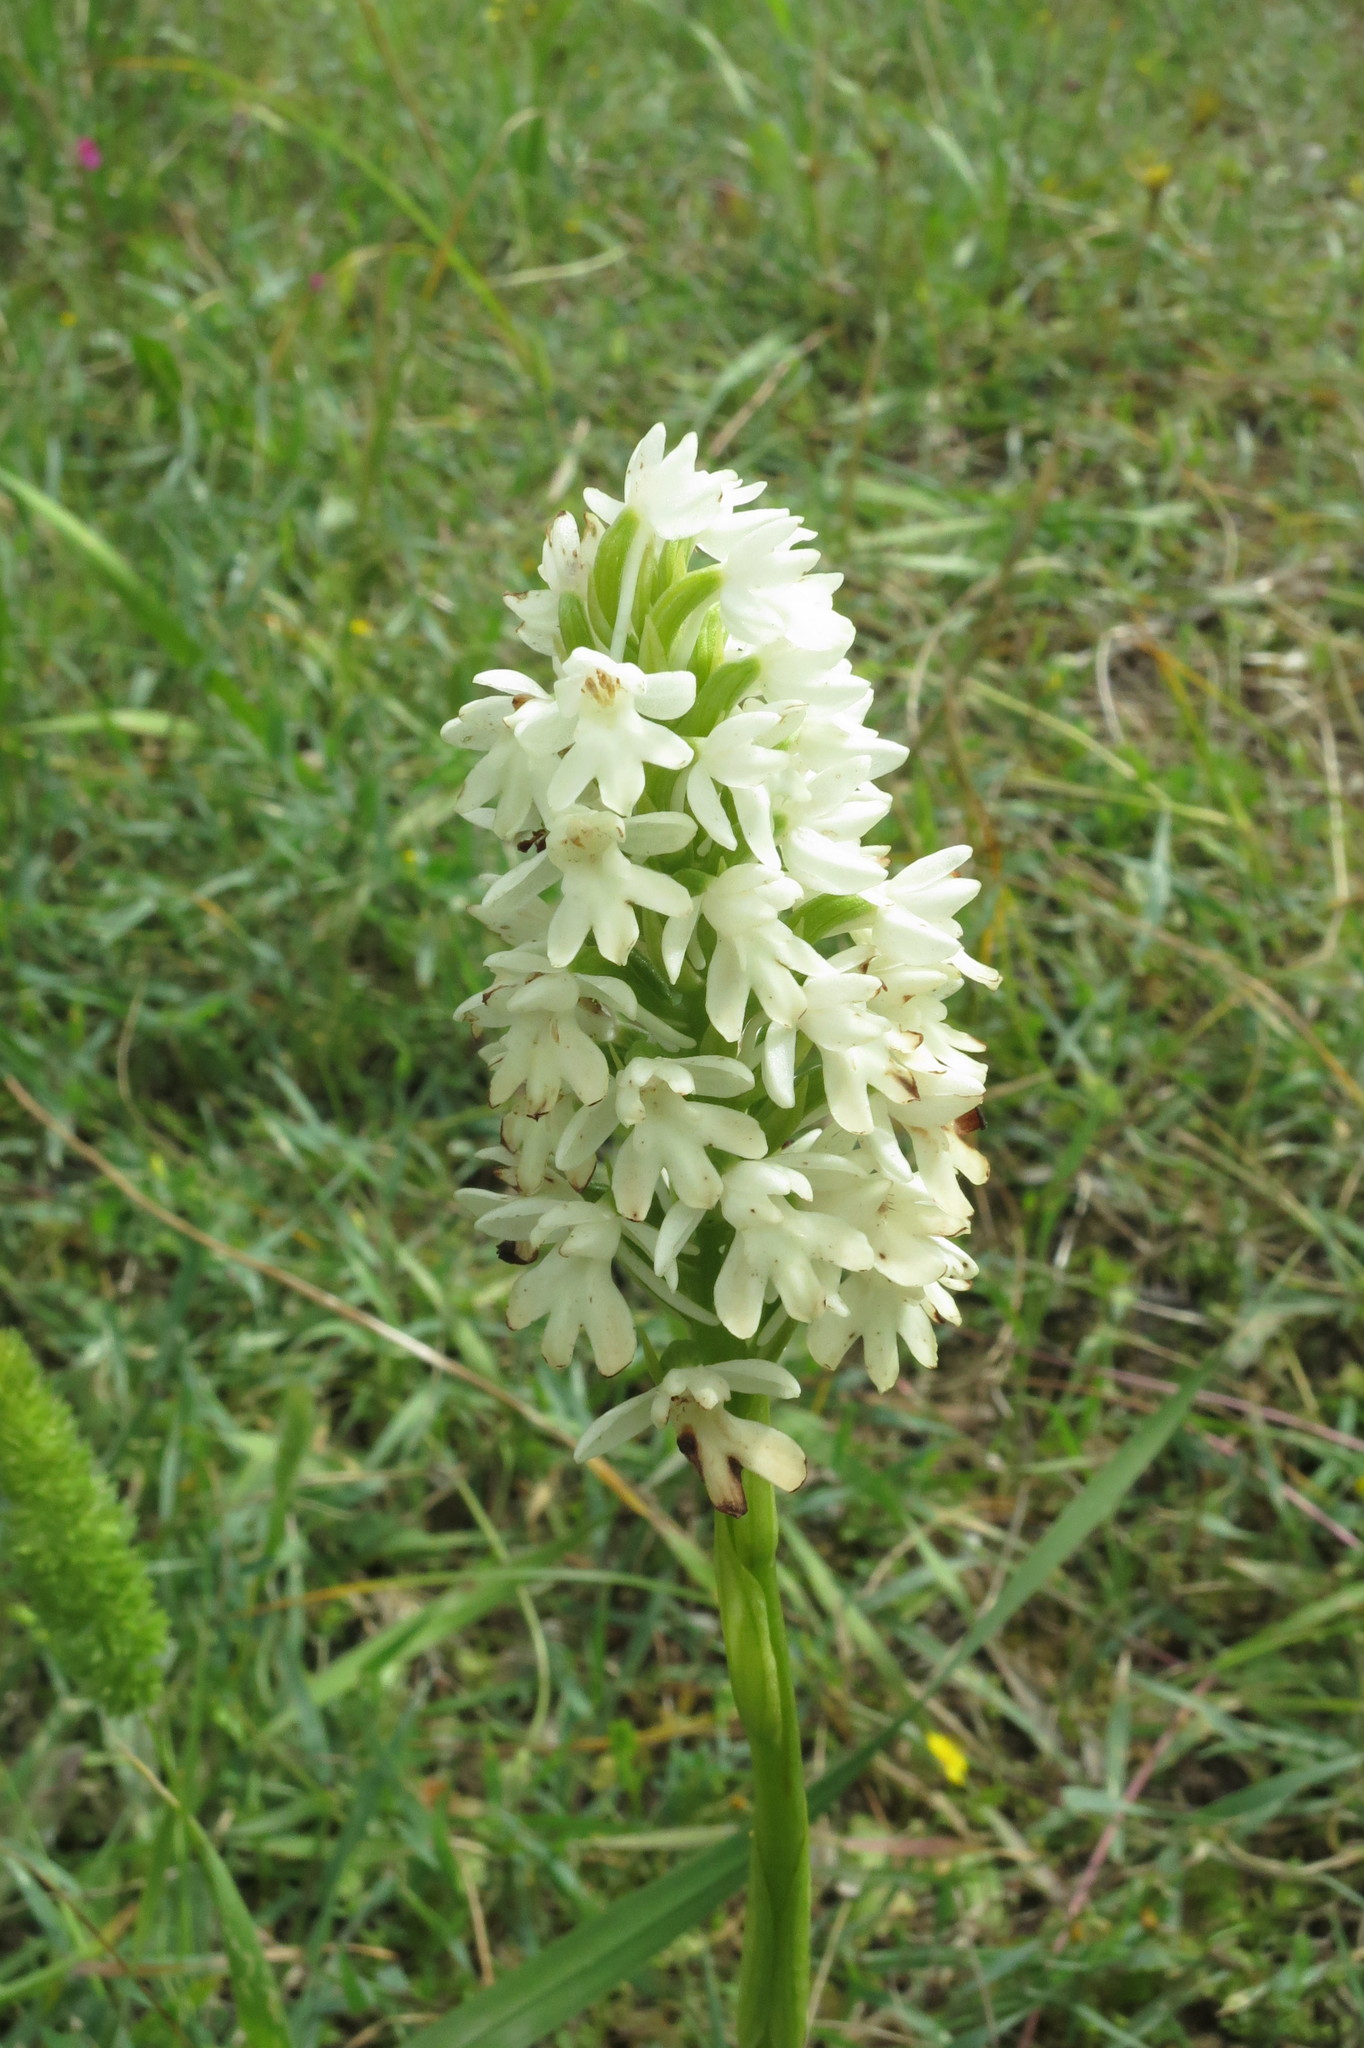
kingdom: Plantae
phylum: Tracheophyta
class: Liliopsida
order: Asparagales
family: Orchidaceae
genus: Anacamptis
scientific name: Anacamptis pyramidalis
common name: Pyramidal orchid
